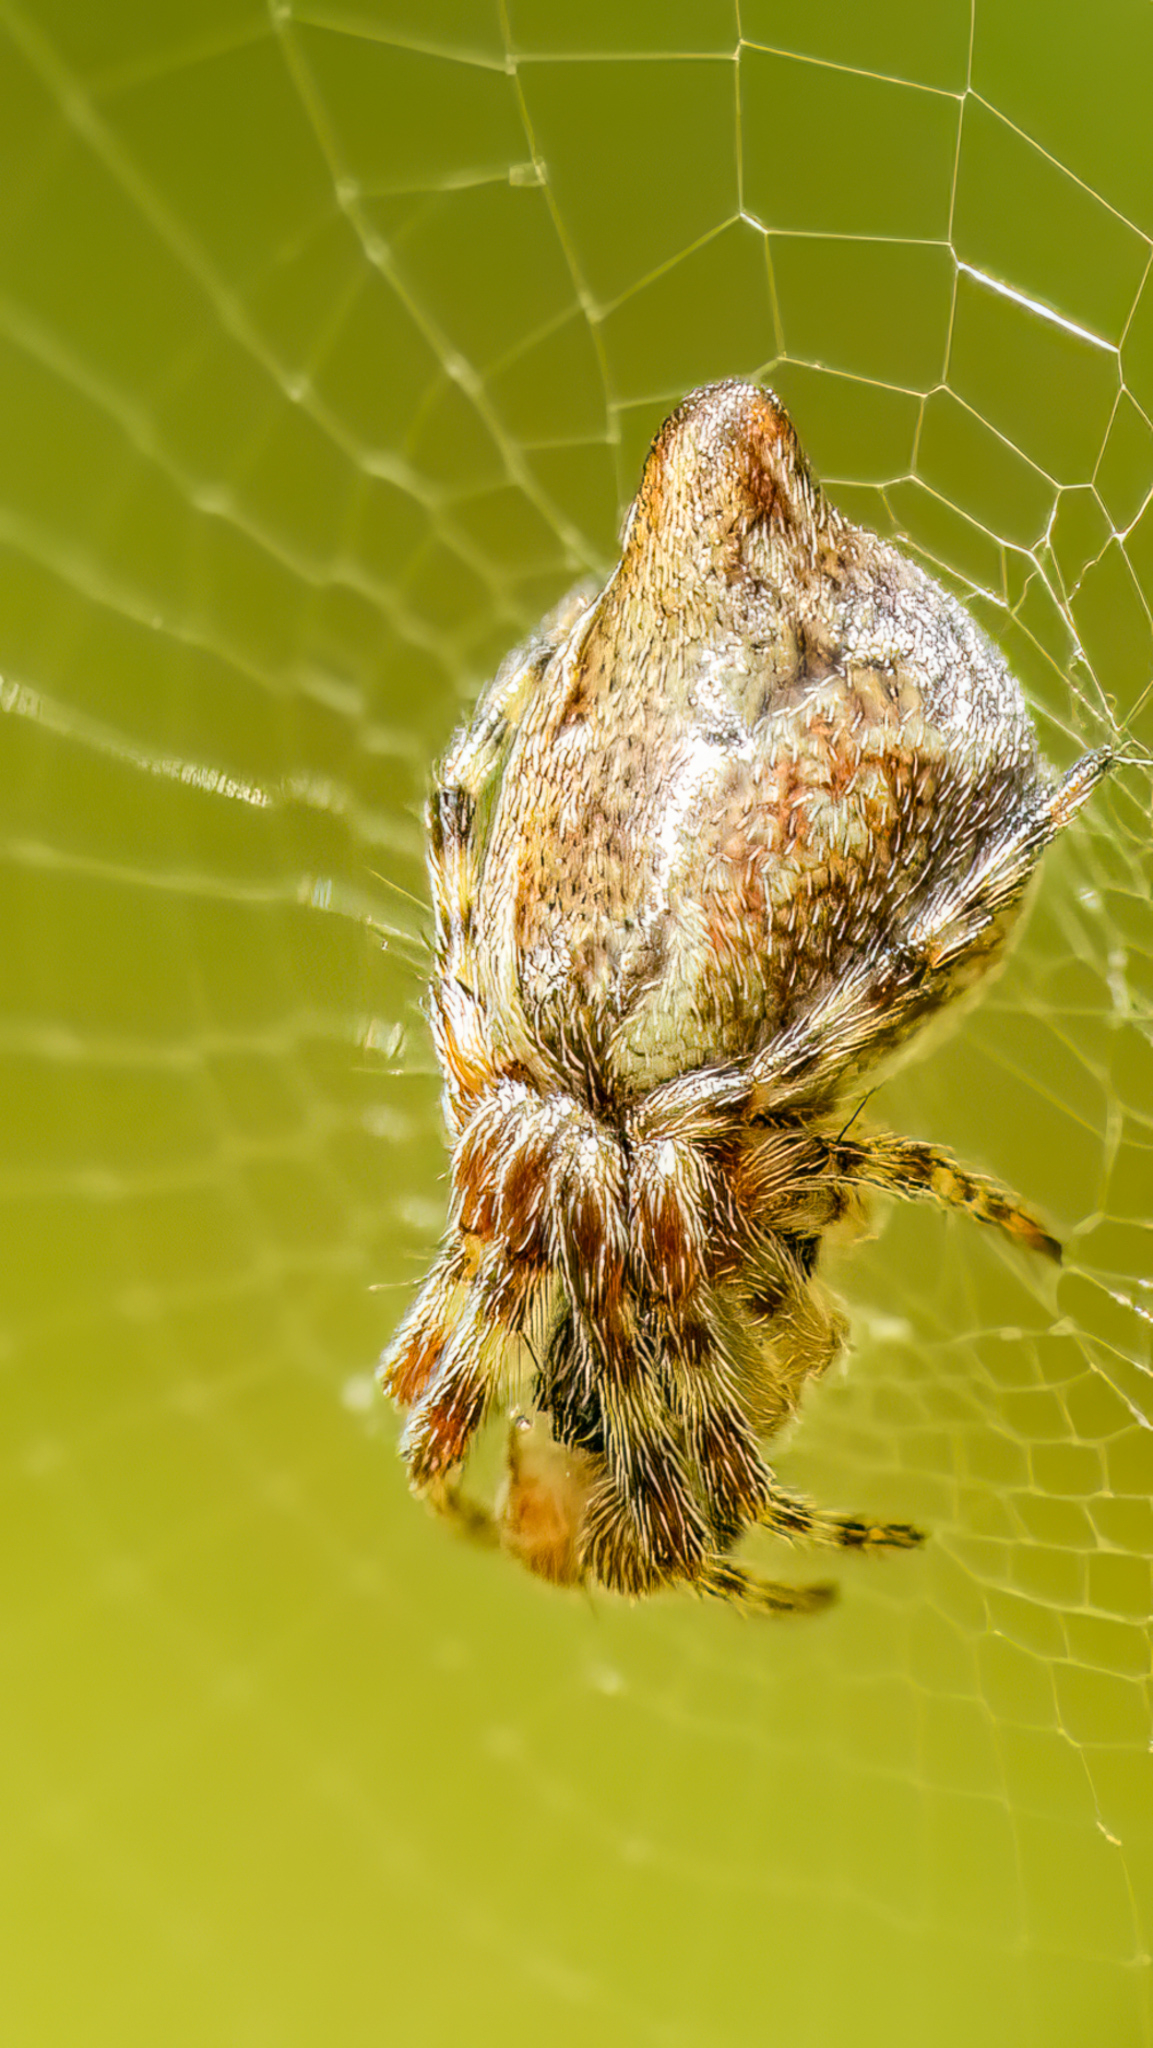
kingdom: Animalia
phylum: Arthropoda
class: Arachnida
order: Araneae
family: Araneidae
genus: Cyclosa
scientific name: Cyclosa conica
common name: Conical trashline orbweaver
